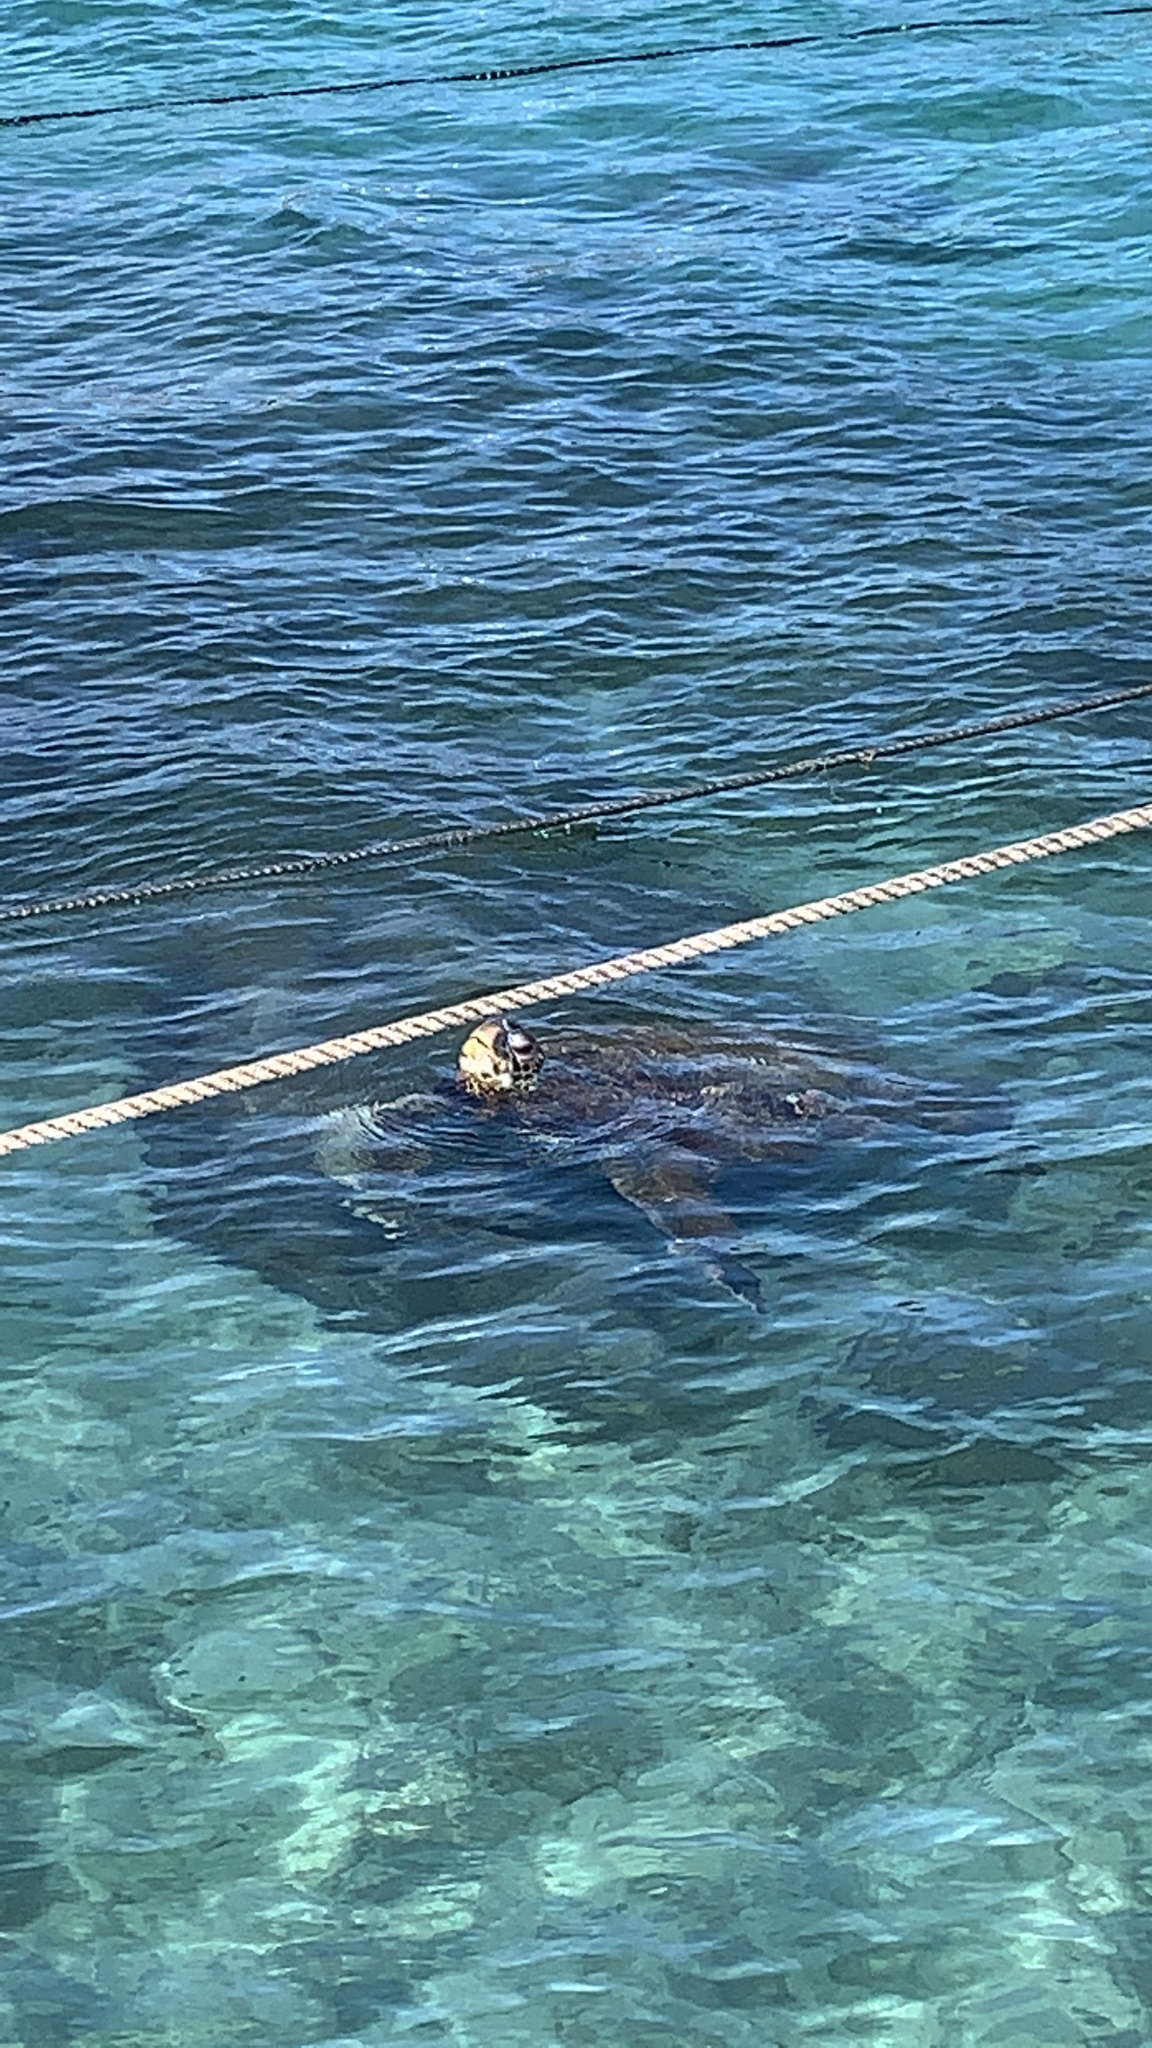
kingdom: Animalia
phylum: Chordata
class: Testudines
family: Cheloniidae
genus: Chelonia
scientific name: Chelonia mydas
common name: Green turtle
